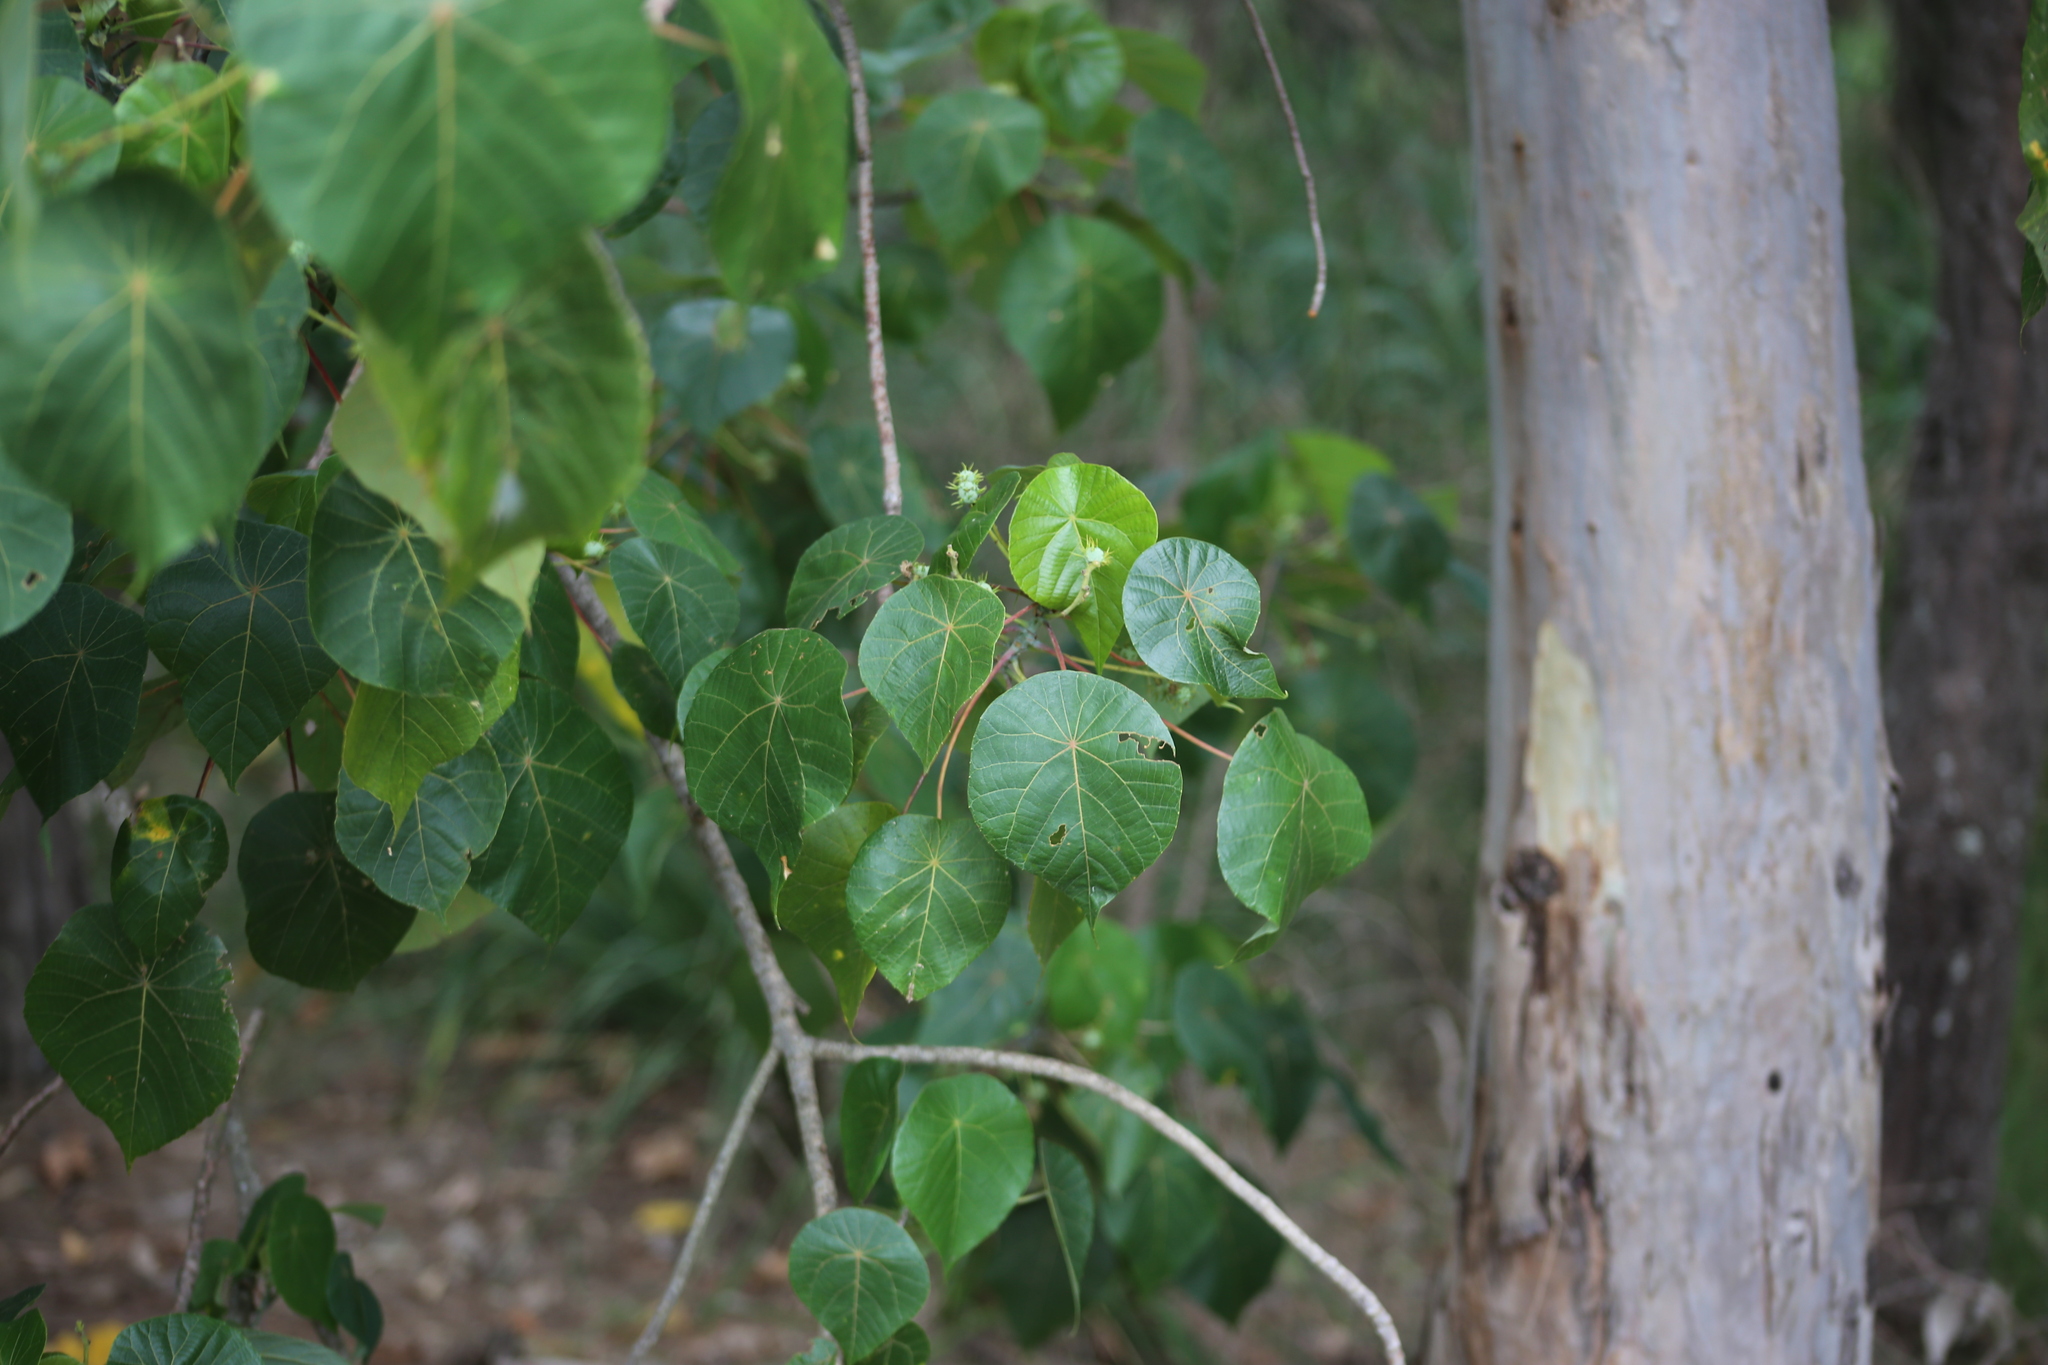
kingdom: Plantae
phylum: Tracheophyta
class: Magnoliopsida
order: Malpighiales
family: Euphorbiaceae
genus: Macaranga
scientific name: Macaranga tanarius
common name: Parasol leaf tree
